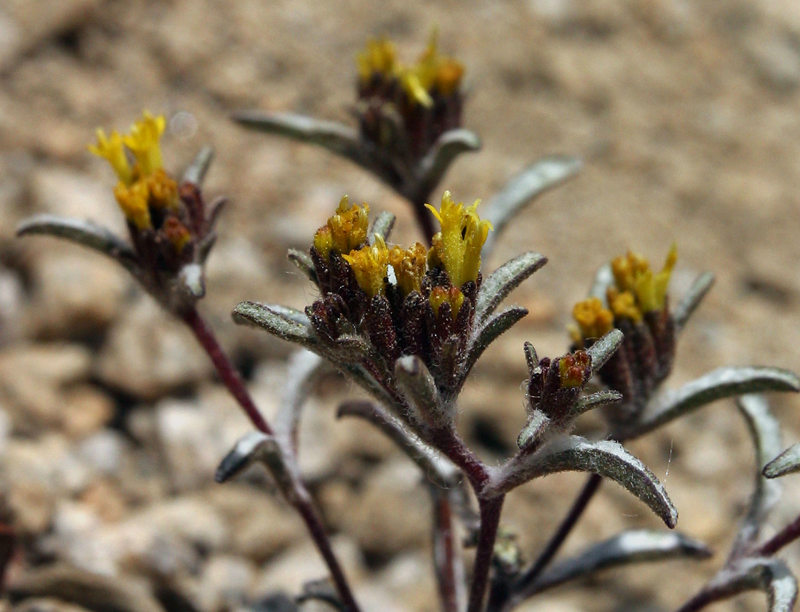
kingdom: Plantae
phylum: Tracheophyta
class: Magnoliopsida
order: Asterales
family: Asteraceae
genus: Orochaenactis
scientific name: Orochaenactis thysanocarpha
